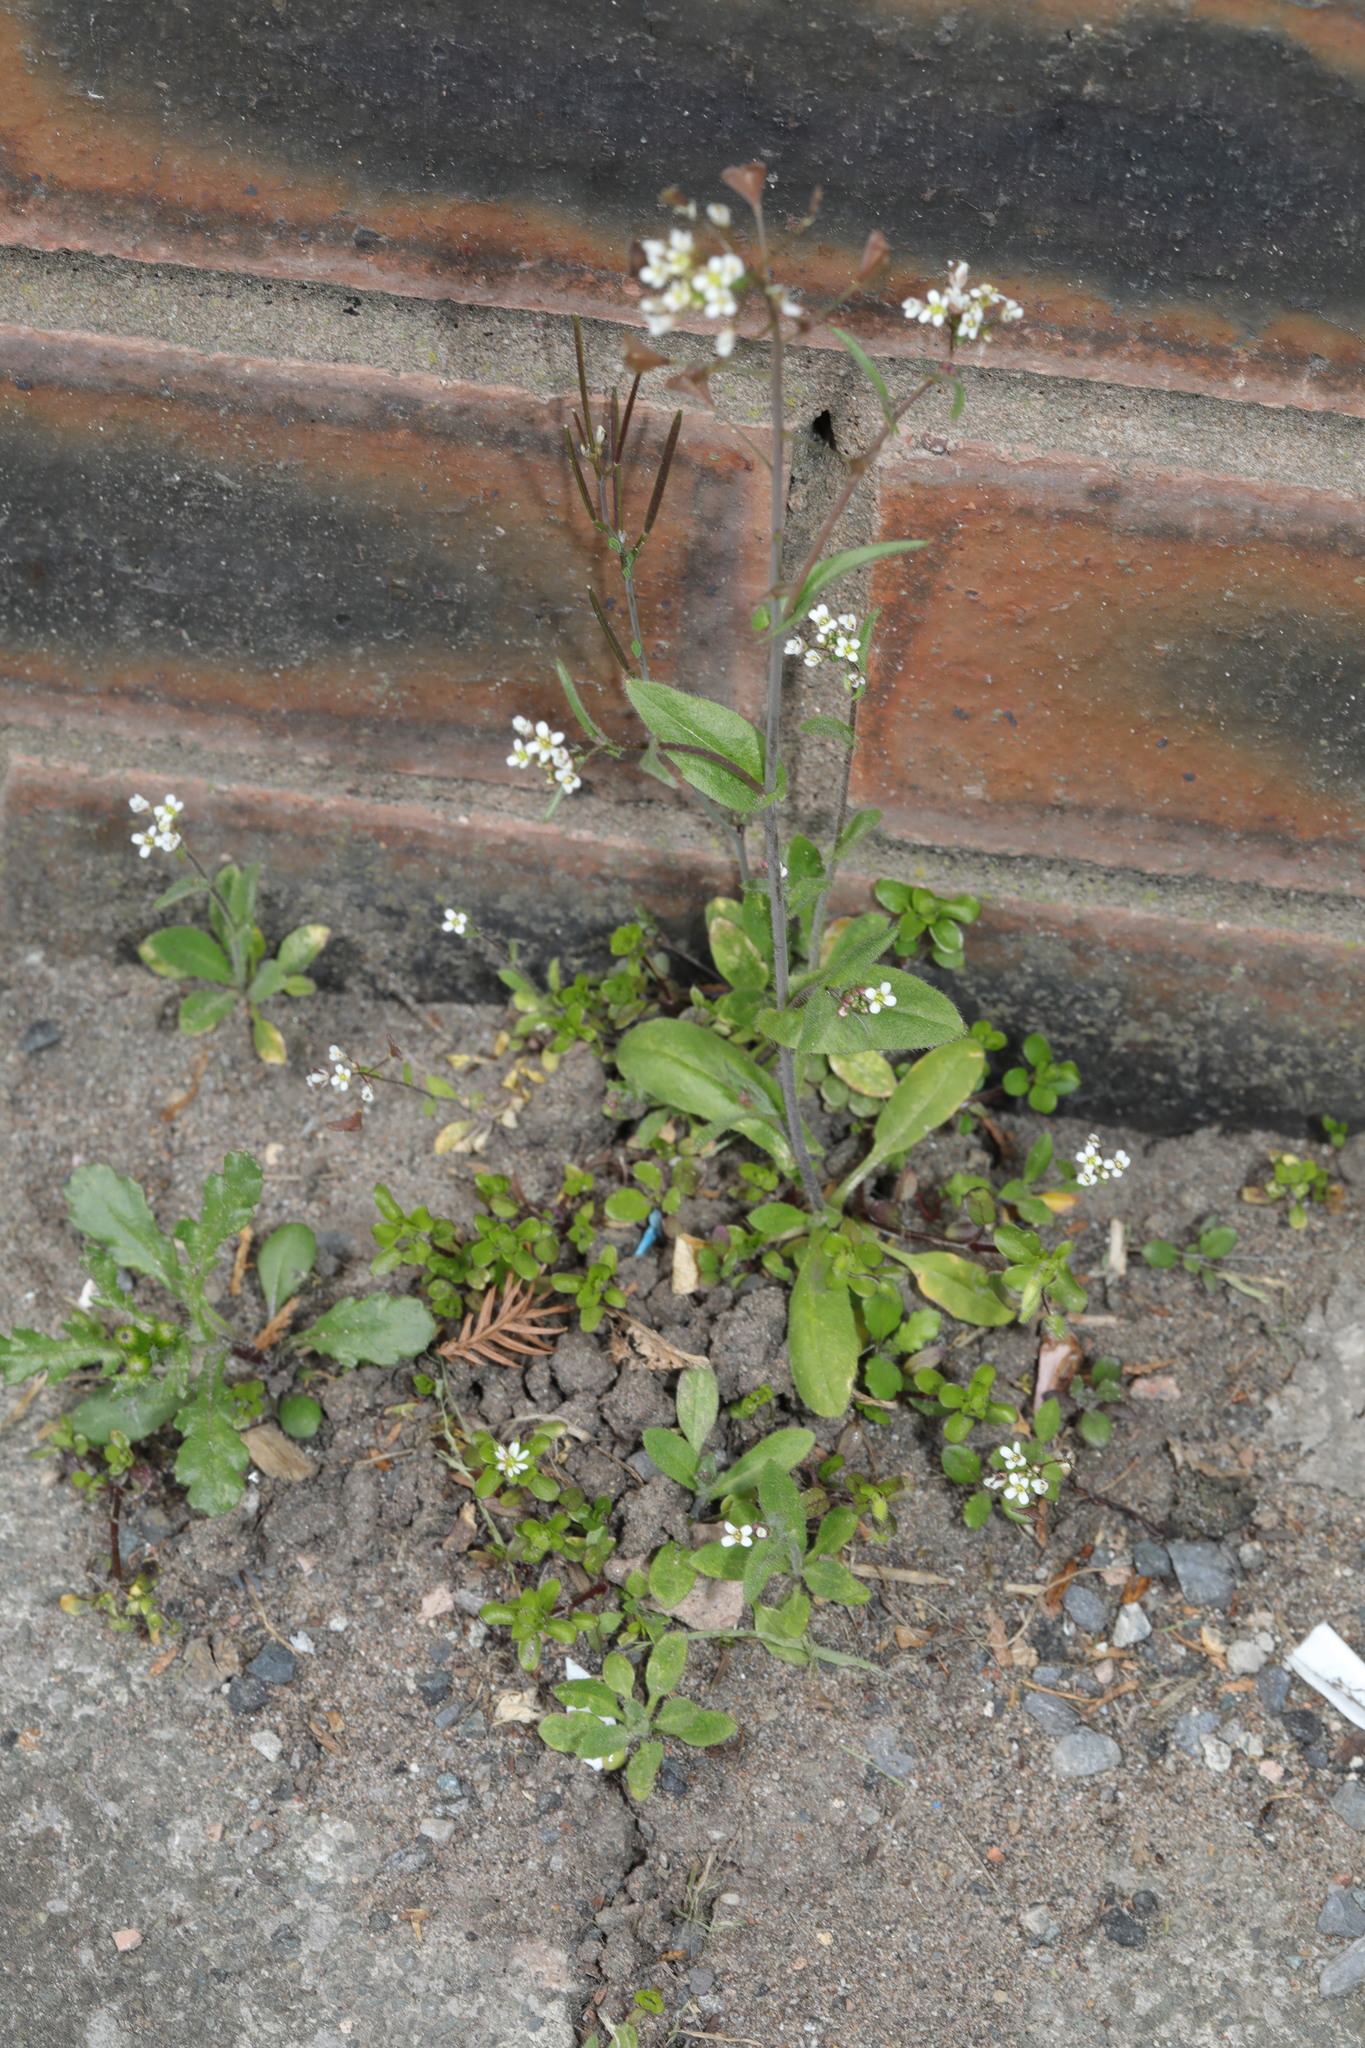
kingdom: Plantae
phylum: Tracheophyta
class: Magnoliopsida
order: Brassicales
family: Brassicaceae
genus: Arabidopsis
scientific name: Arabidopsis thaliana
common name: Thale cress
